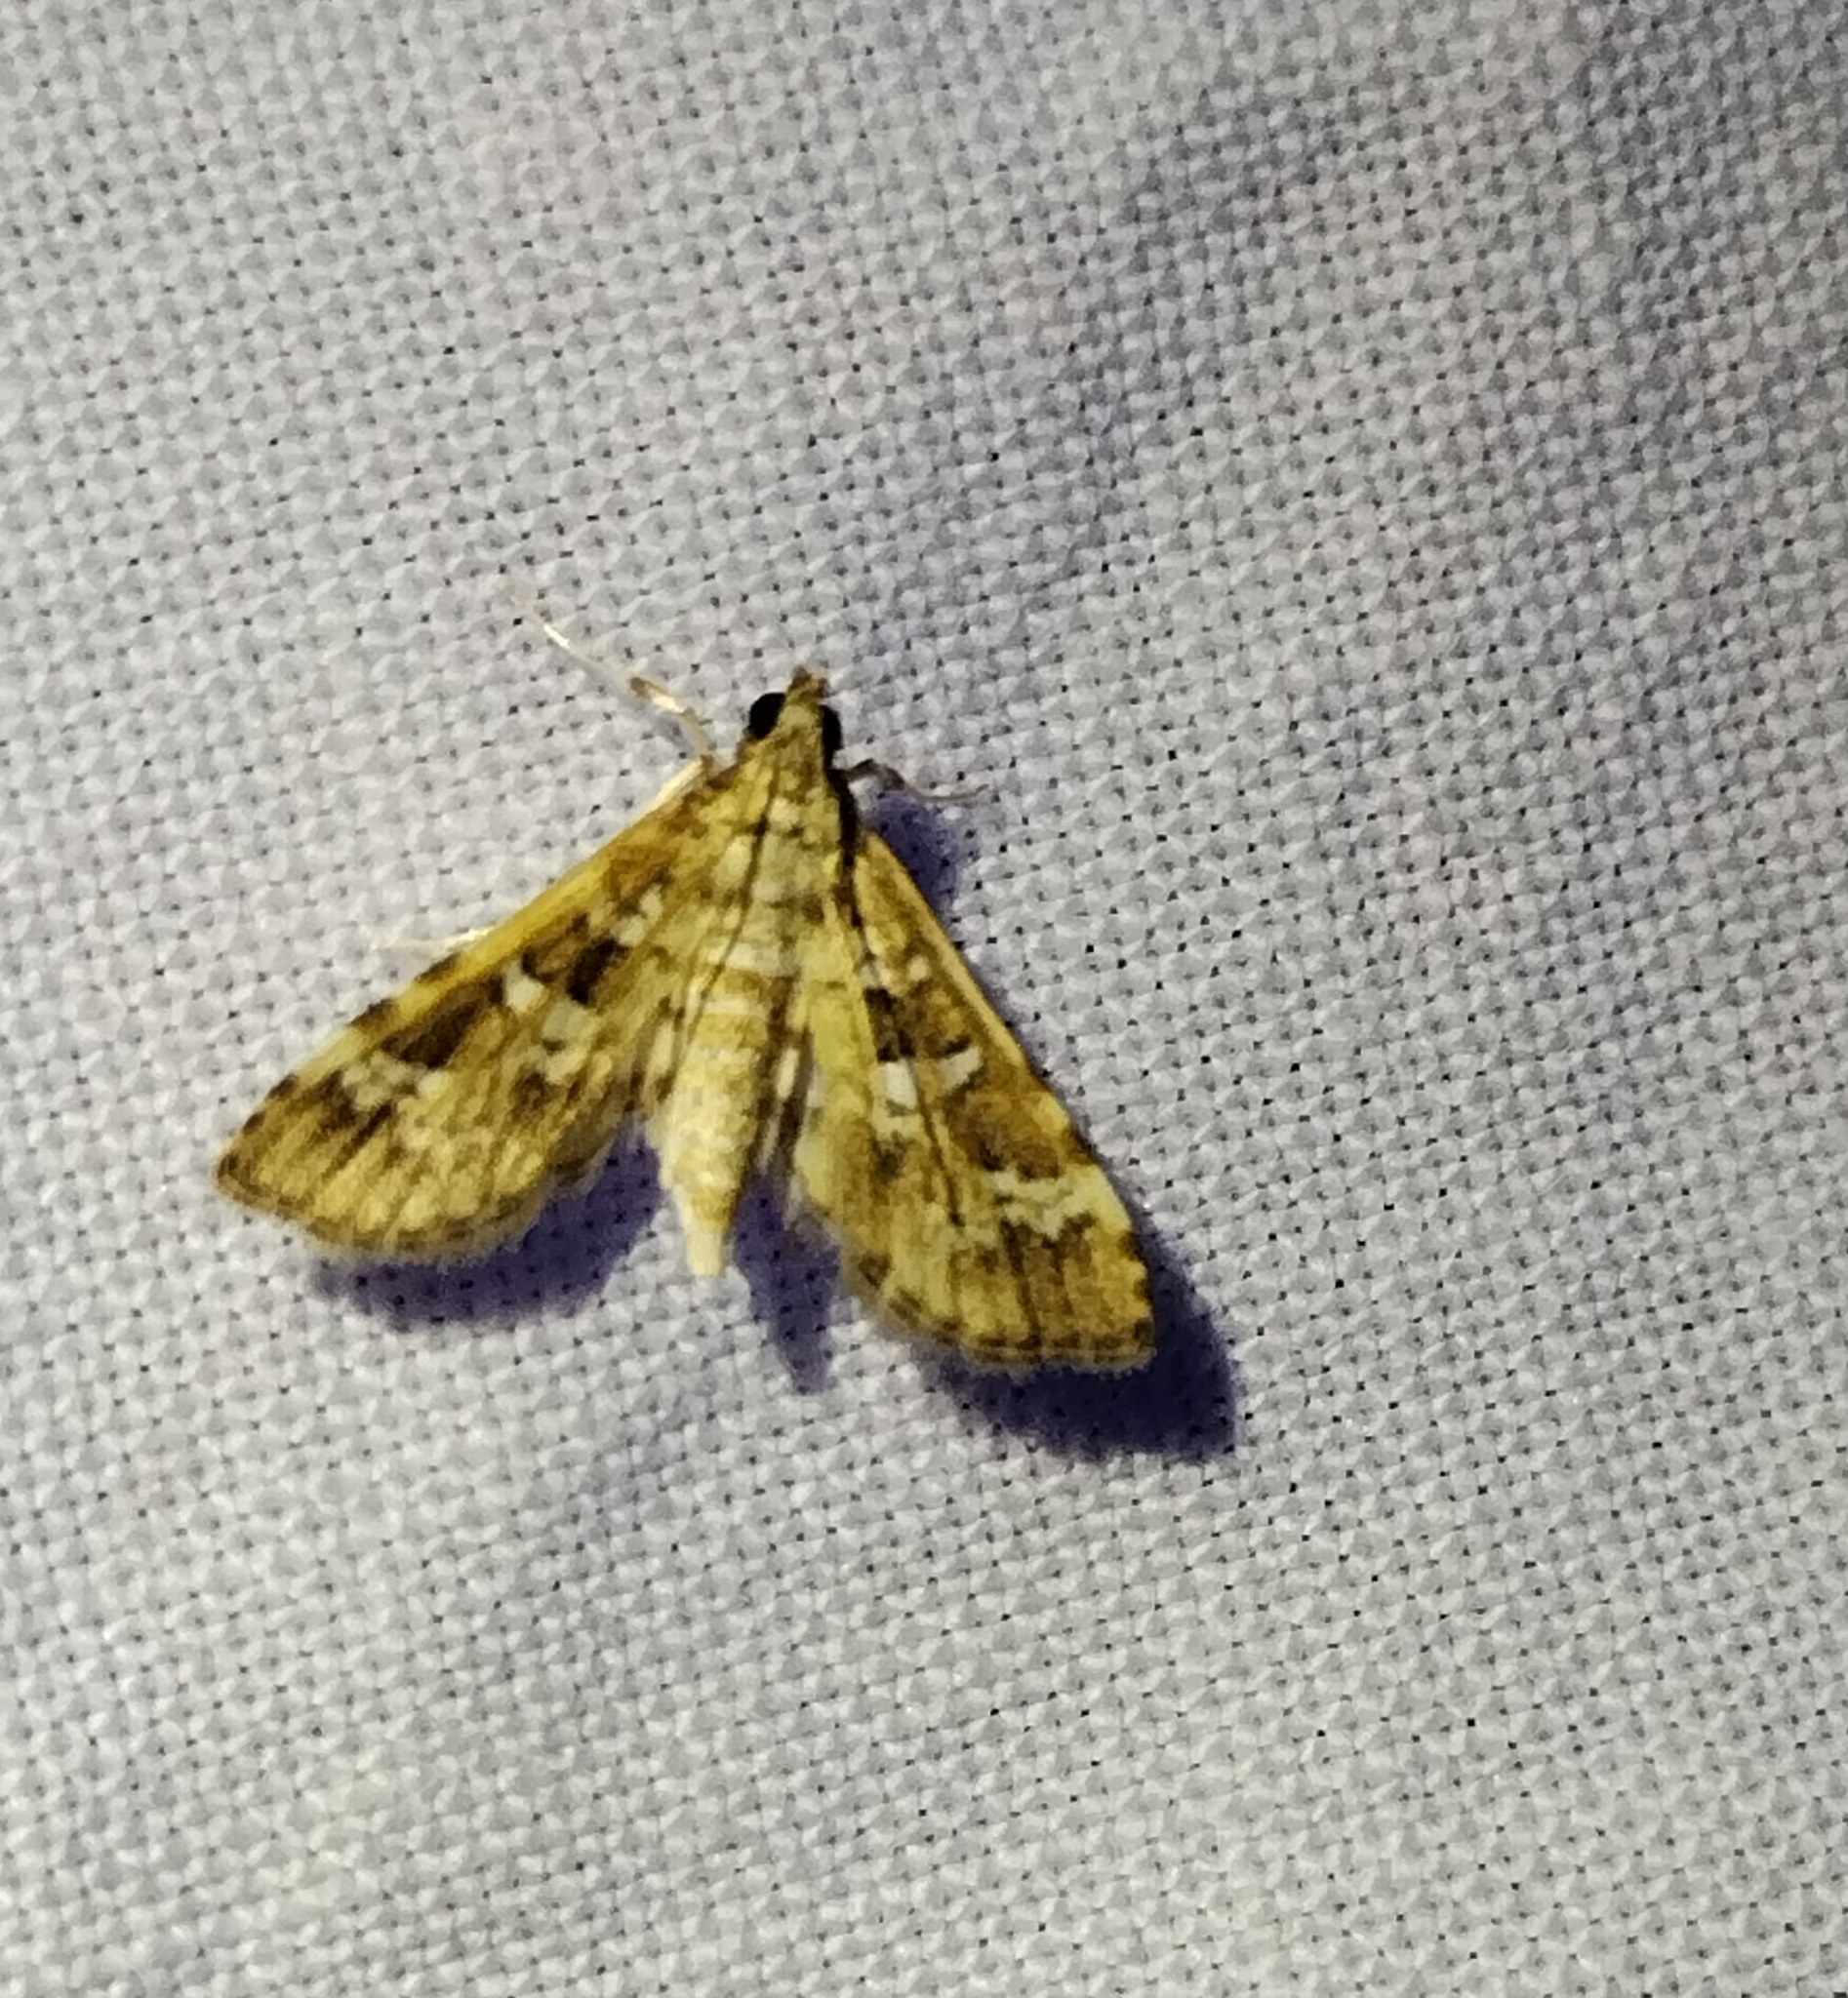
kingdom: Animalia
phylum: Arthropoda
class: Insecta
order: Lepidoptera
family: Crambidae
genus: Samea
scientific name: Samea multiplicalis
